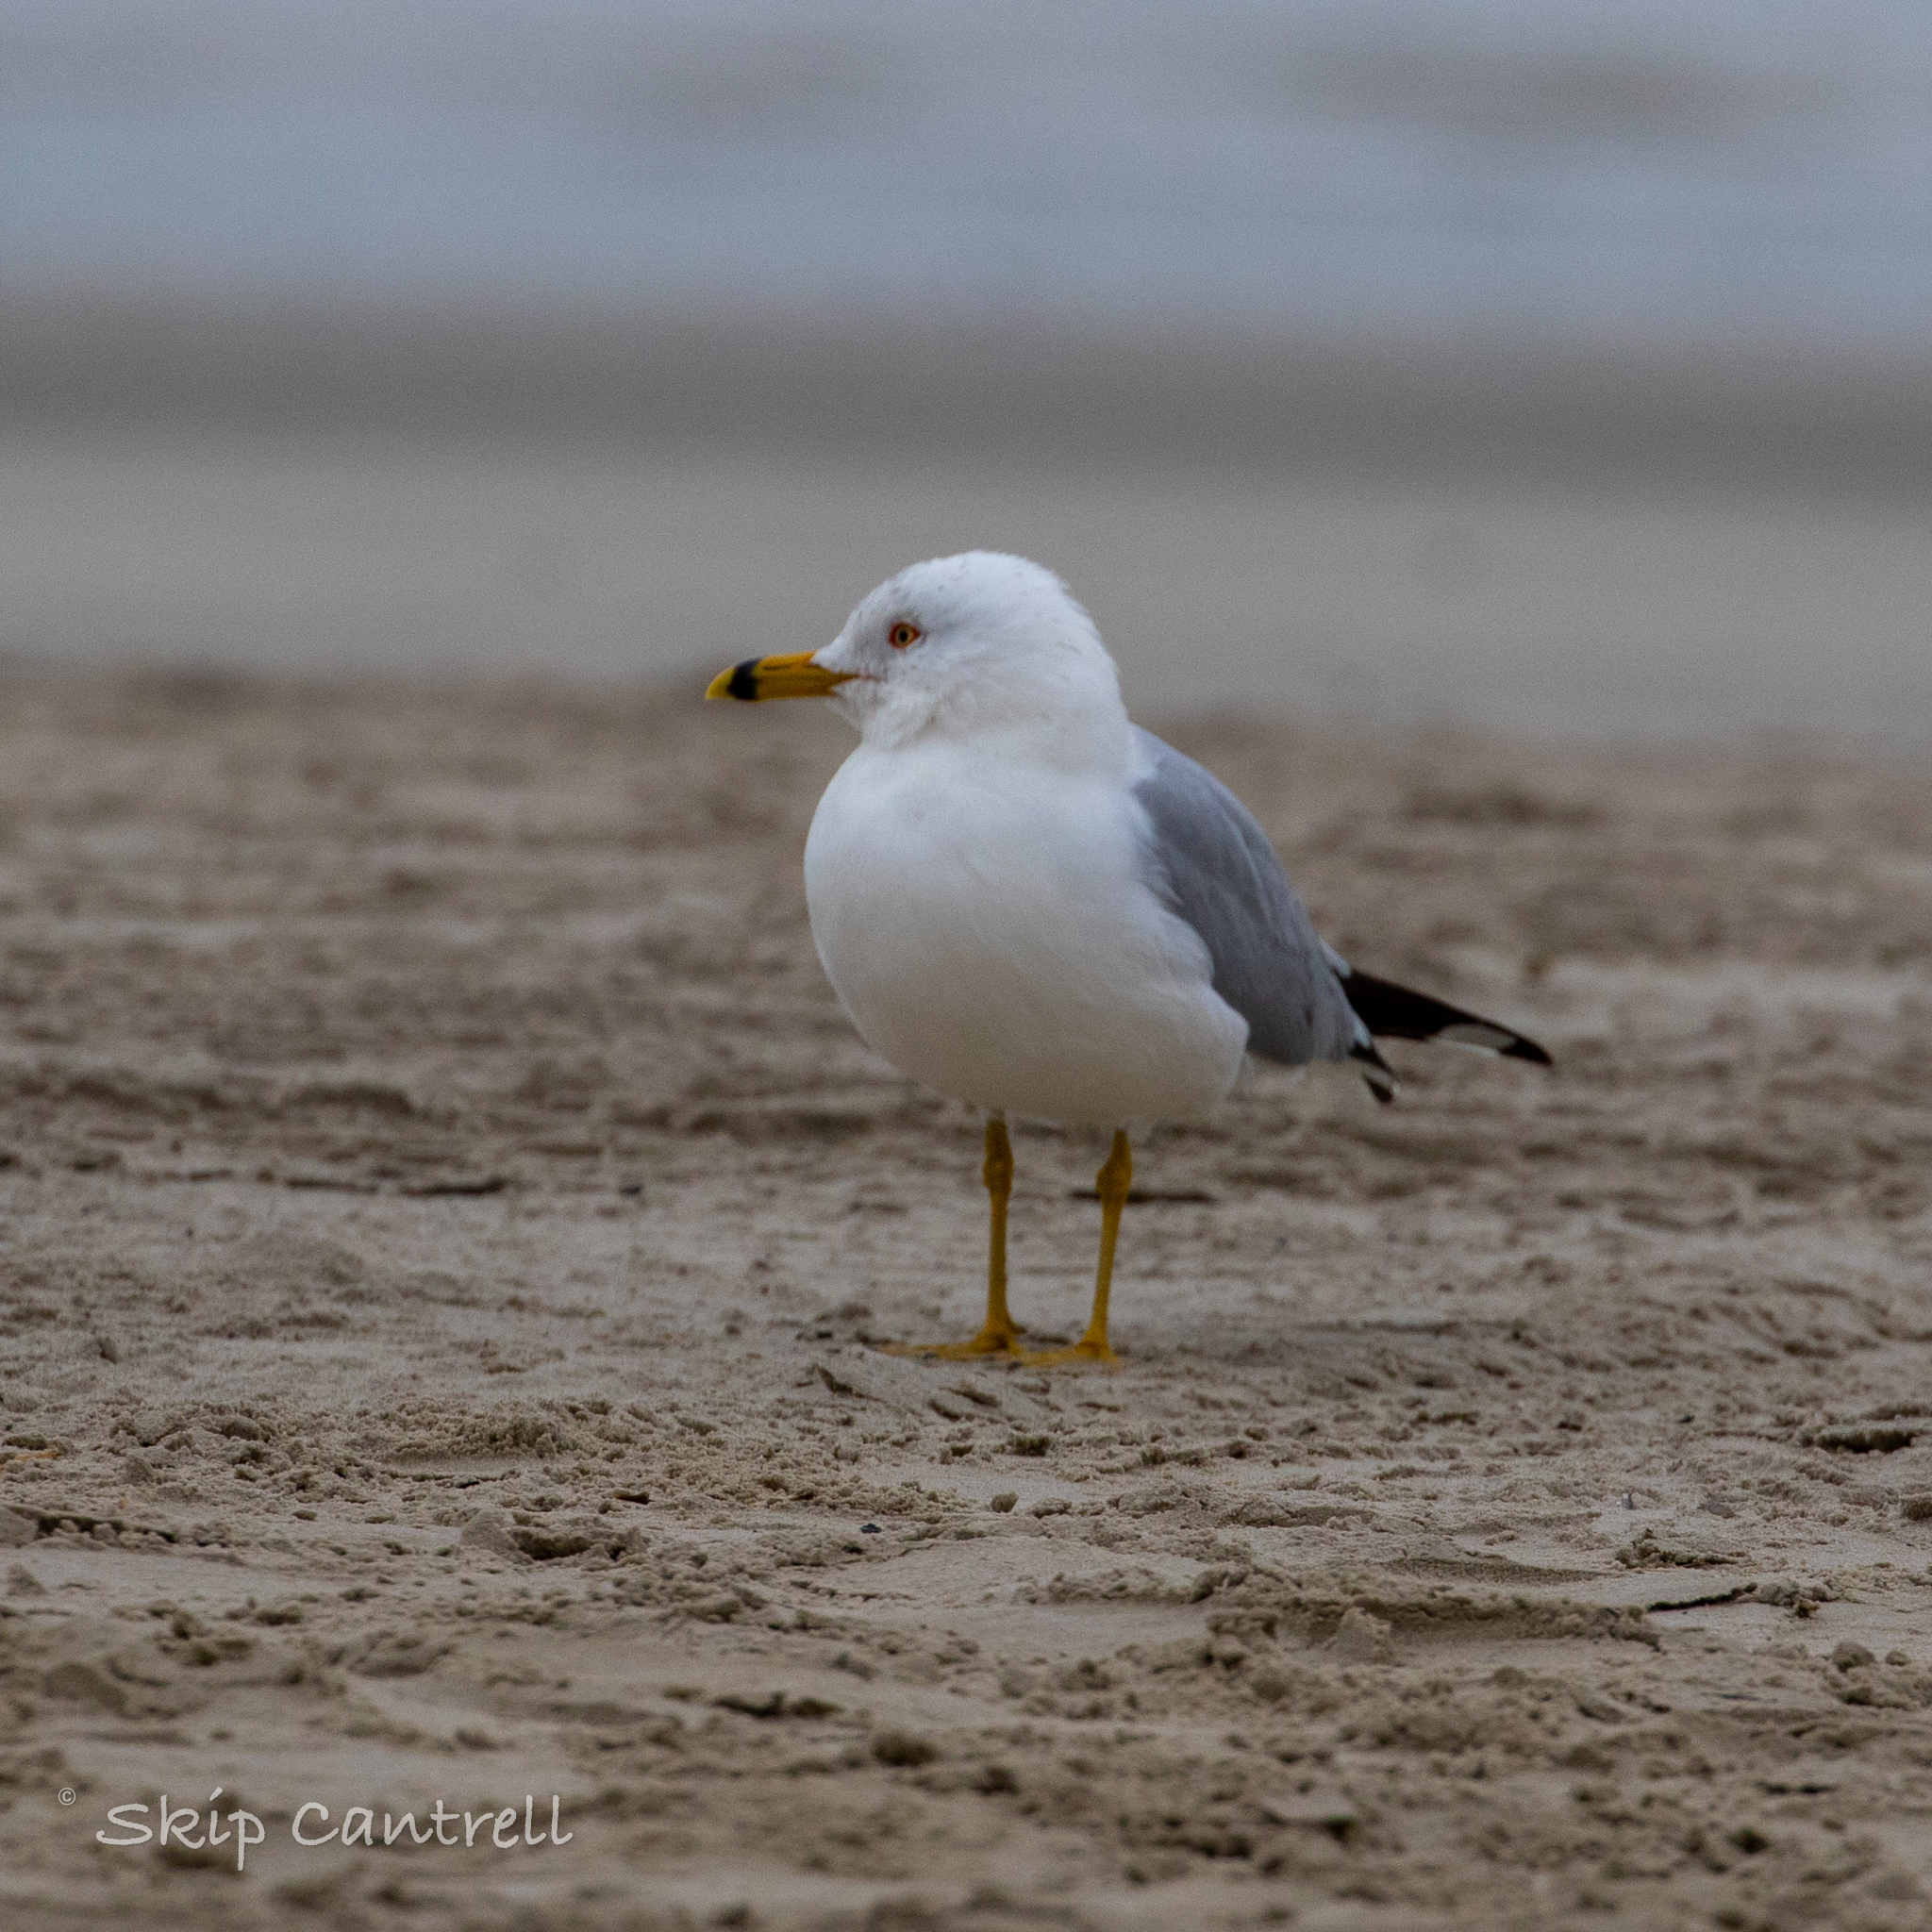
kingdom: Animalia
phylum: Chordata
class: Aves
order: Charadriiformes
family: Laridae
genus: Larus
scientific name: Larus delawarensis
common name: Ring-billed gull
